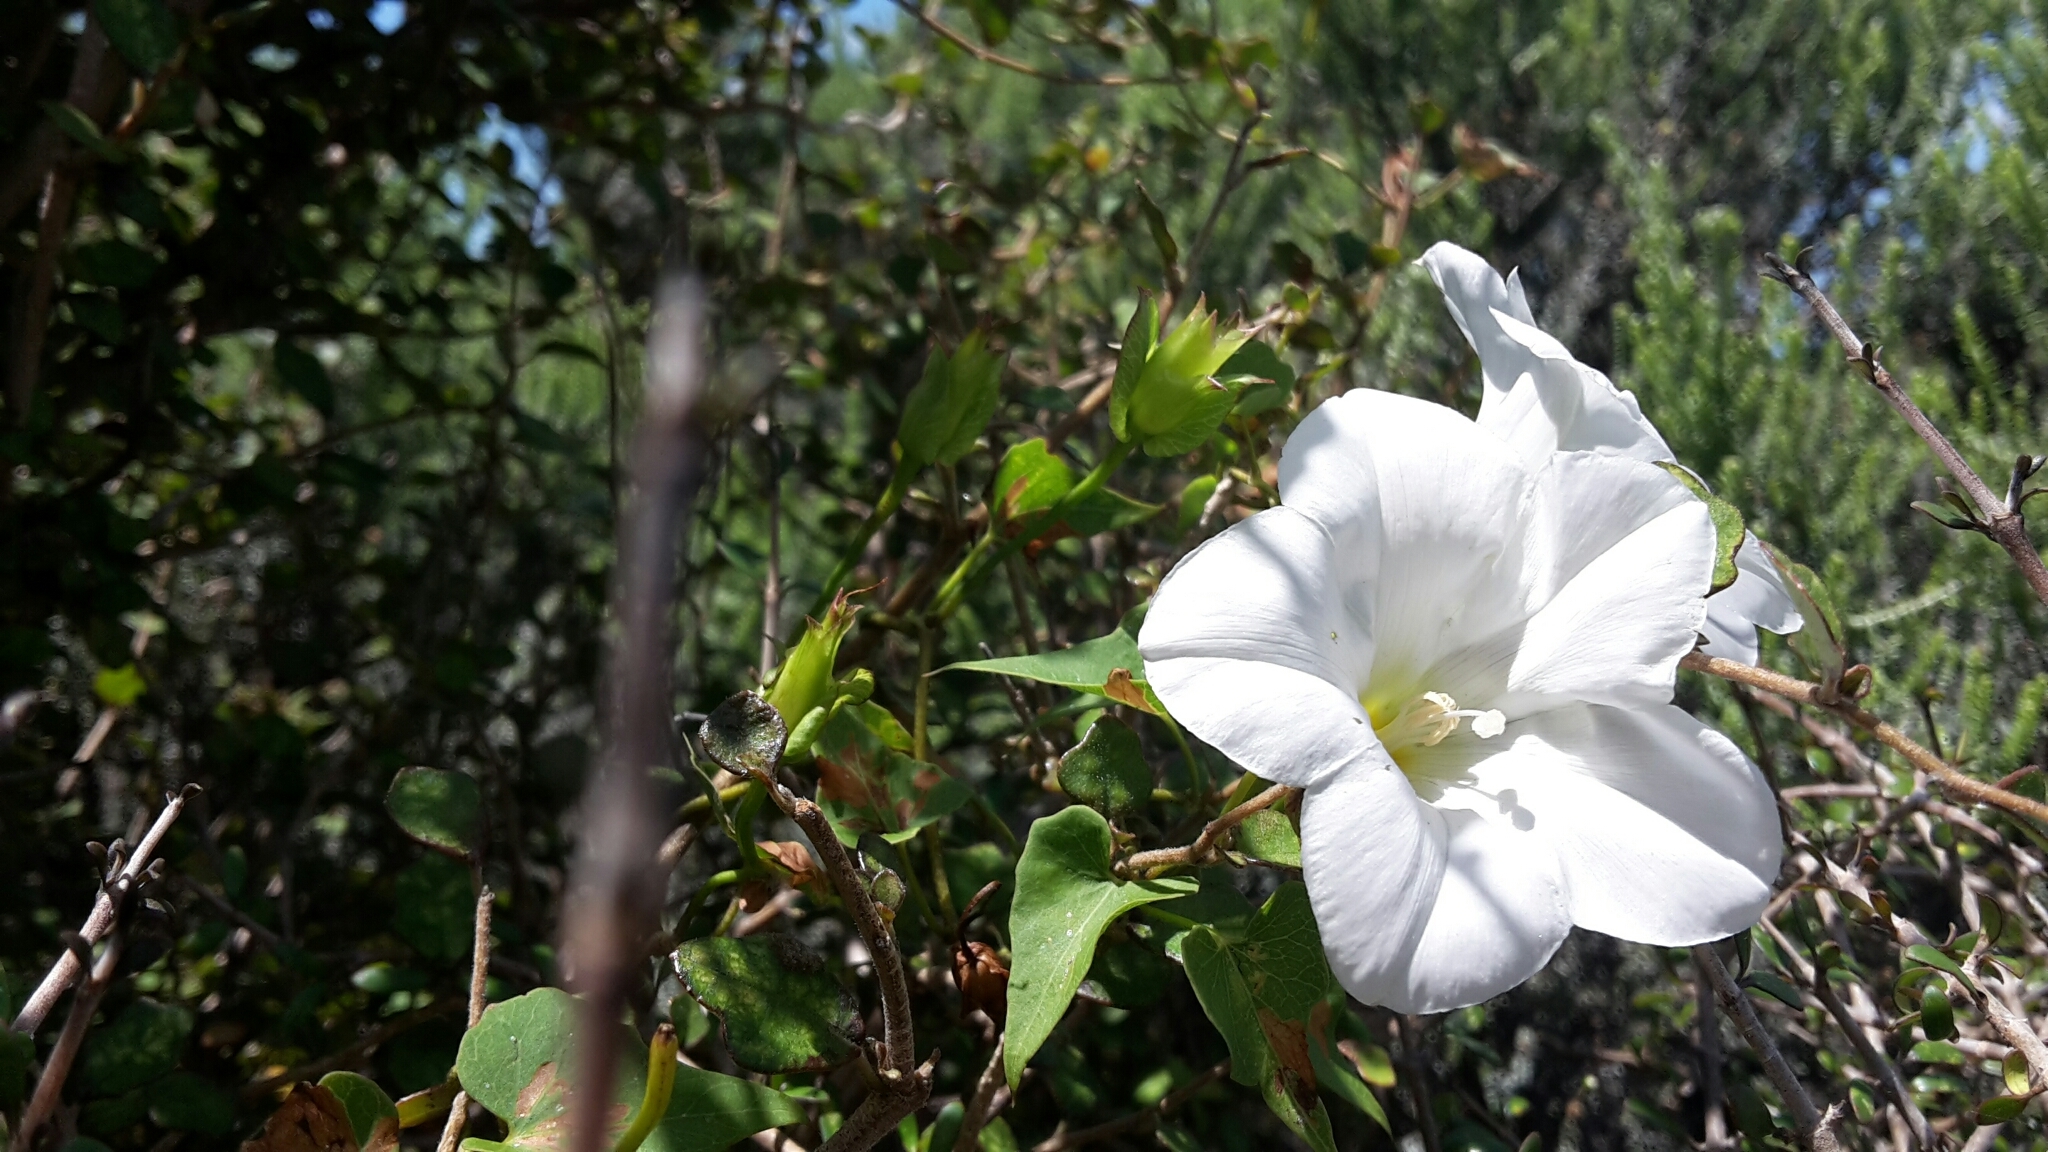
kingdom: Plantae
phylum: Tracheophyta
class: Magnoliopsida
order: Solanales
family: Convolvulaceae
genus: Calystegia
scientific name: Calystegia tuguriorum
